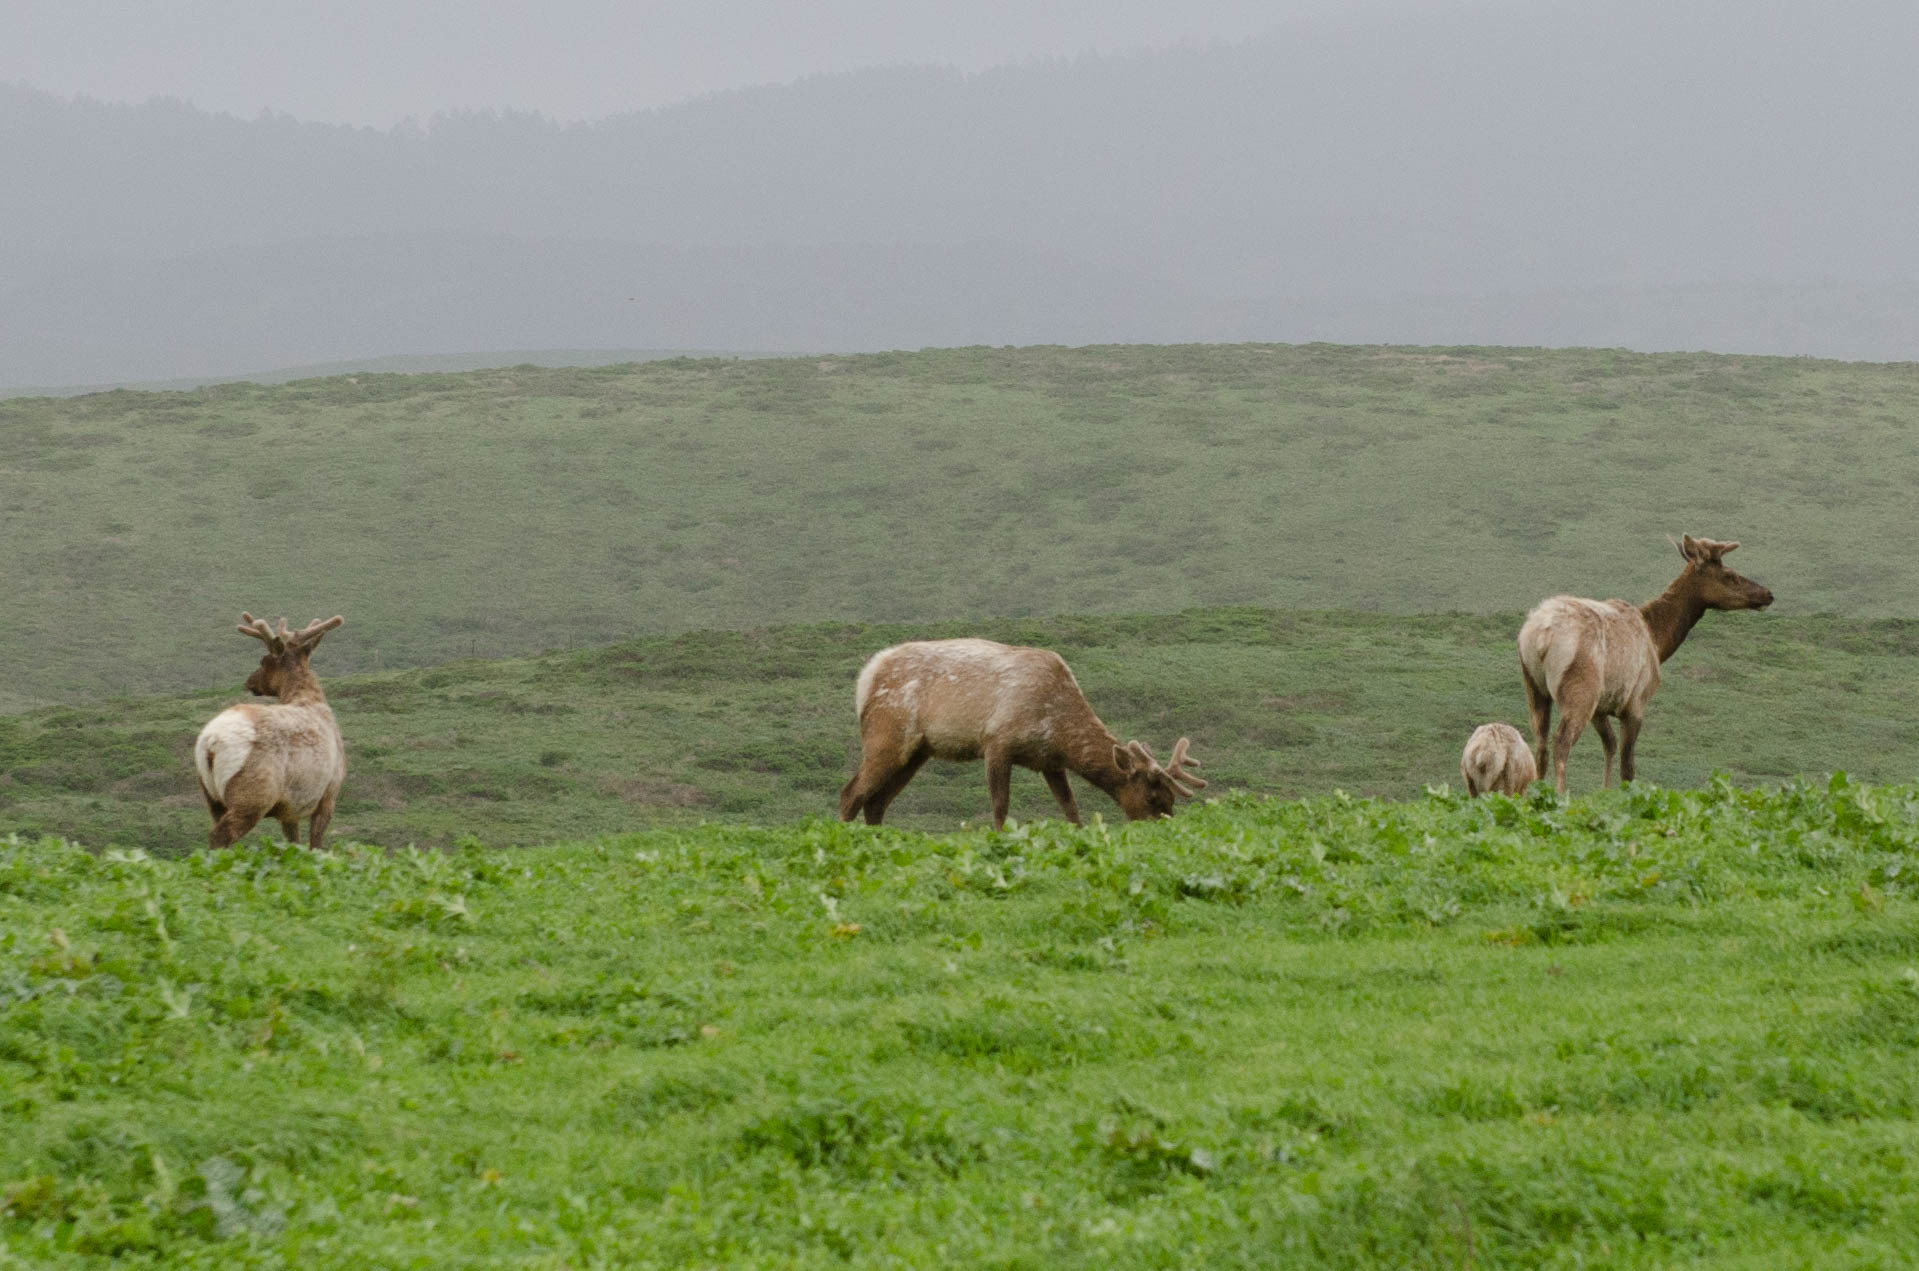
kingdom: Animalia
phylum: Chordata
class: Mammalia
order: Artiodactyla
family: Cervidae
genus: Cervus
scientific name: Cervus elaphus
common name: Red deer
